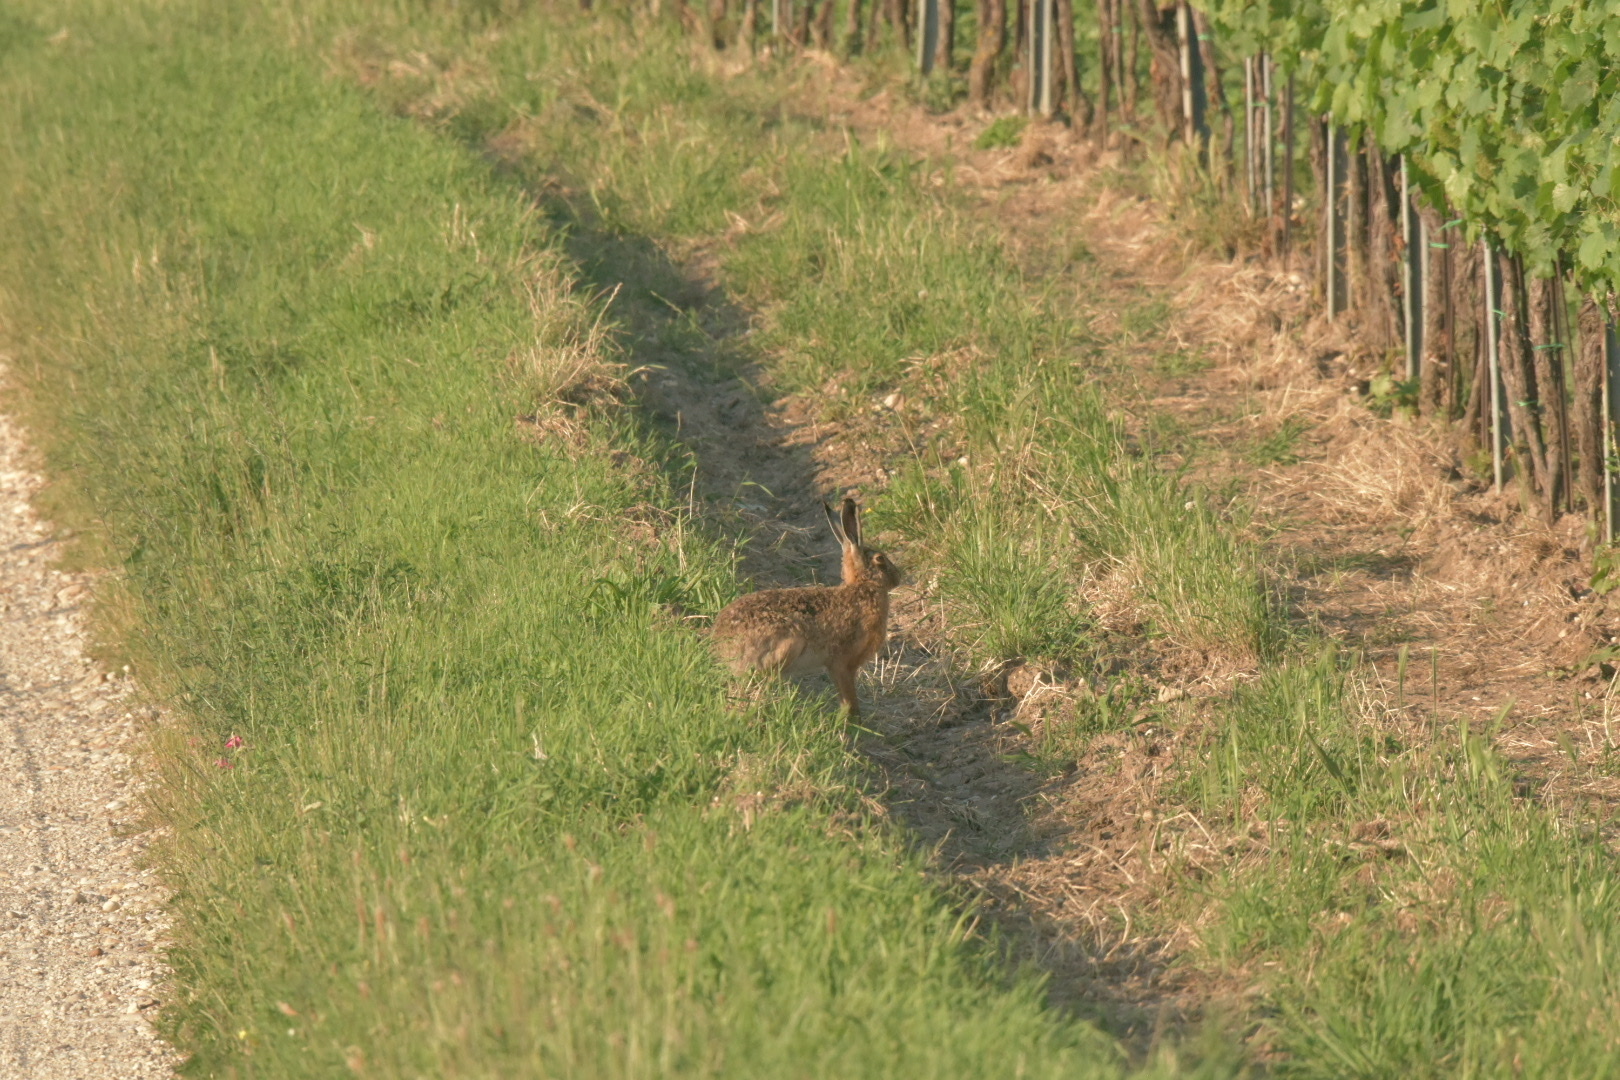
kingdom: Animalia
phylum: Chordata
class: Mammalia
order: Lagomorpha
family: Leporidae
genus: Lepus
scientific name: Lepus europaeus
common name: European hare
